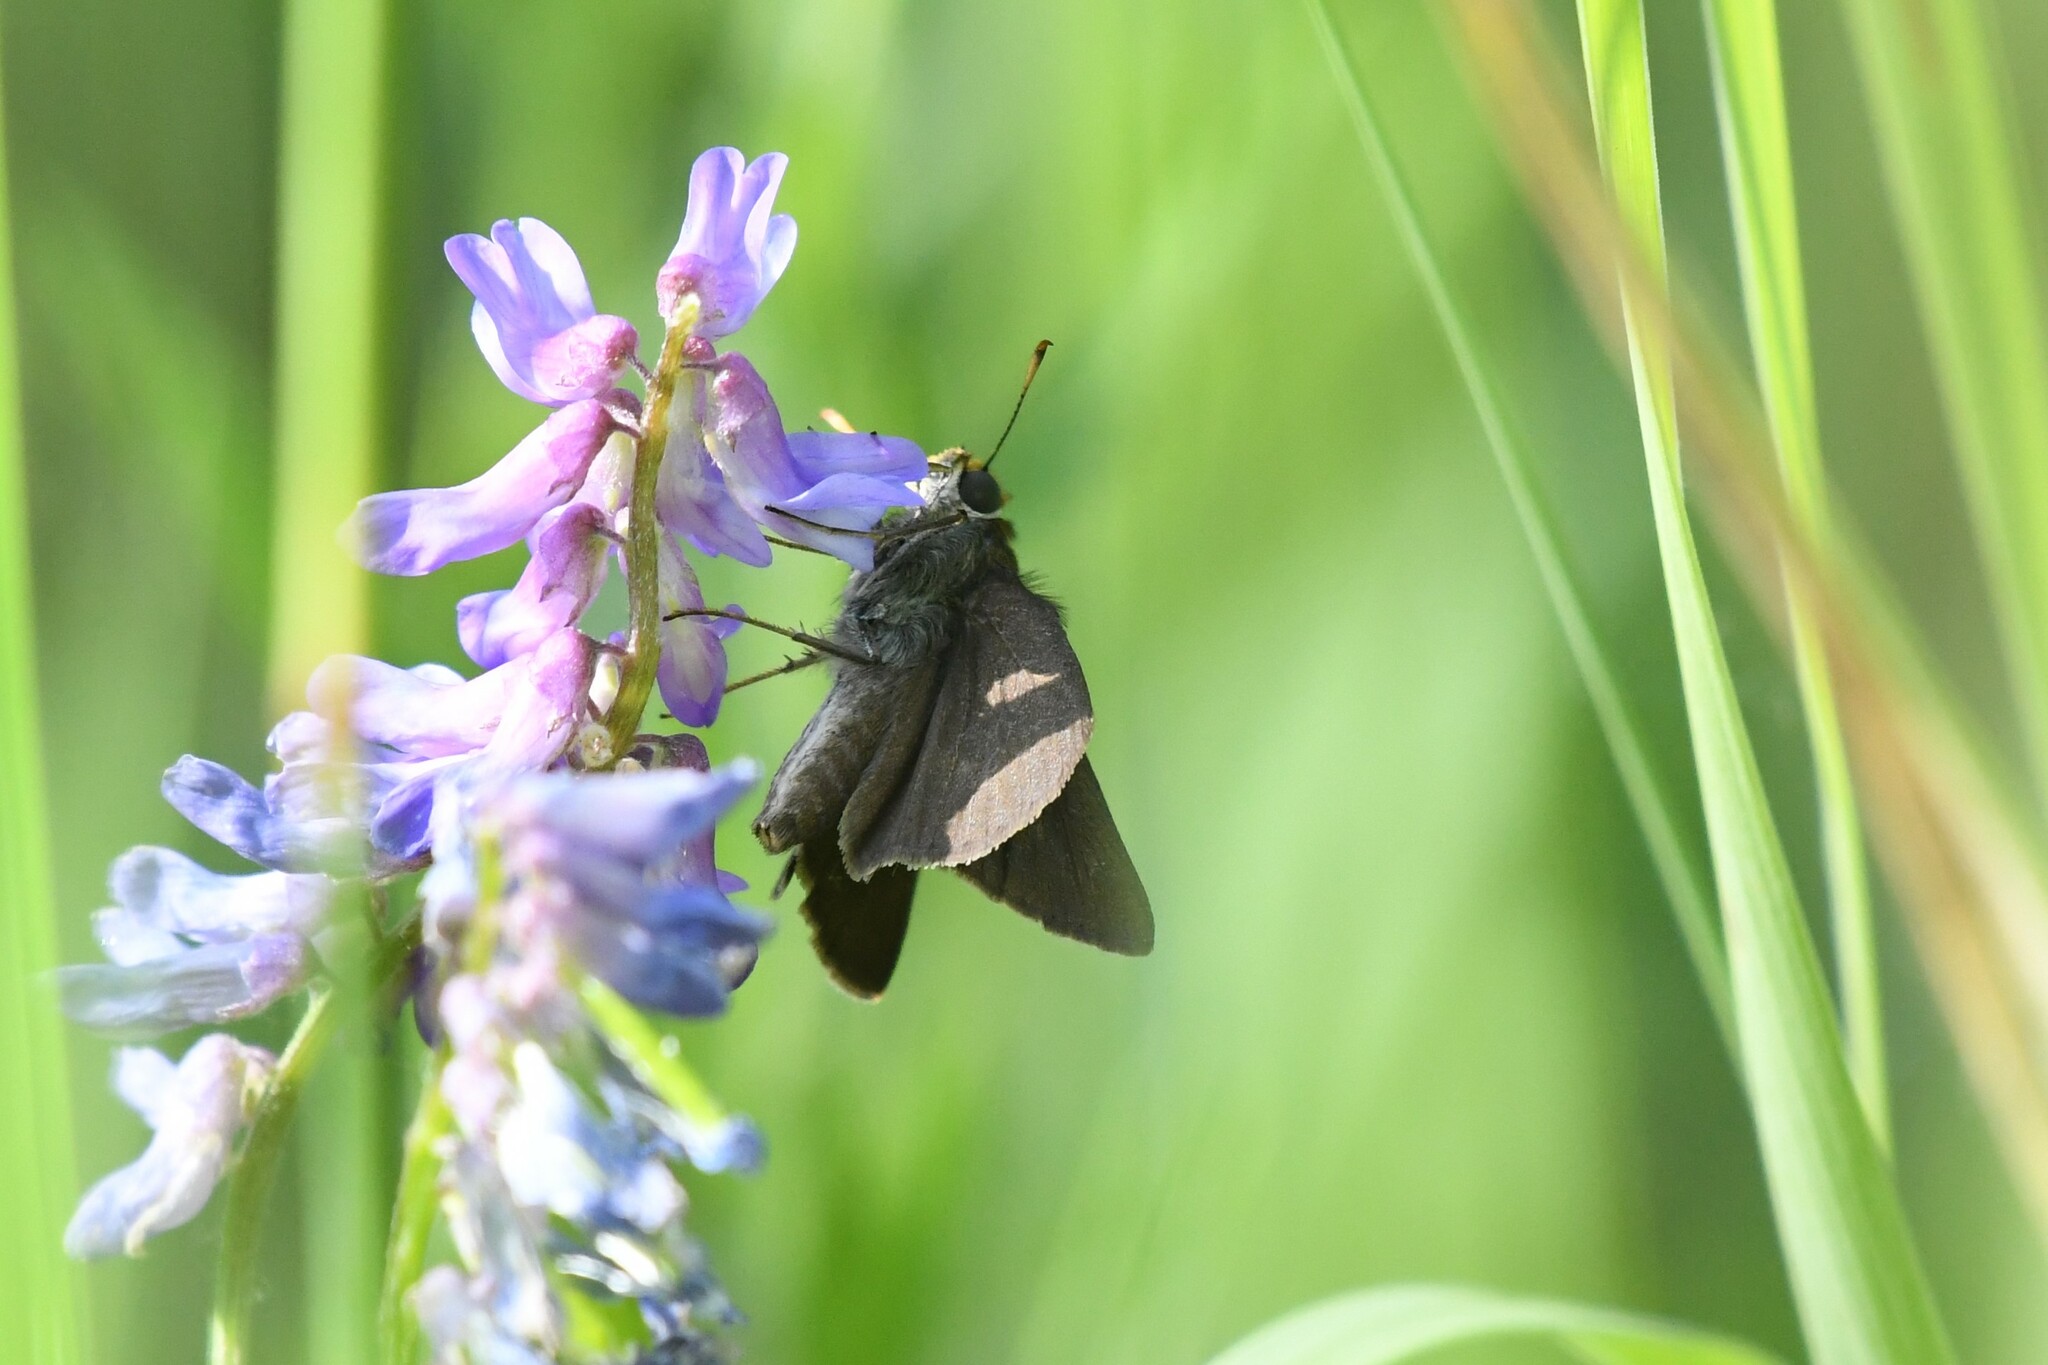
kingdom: Animalia
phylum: Arthropoda
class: Insecta
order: Lepidoptera
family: Hesperiidae
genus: Euphyes
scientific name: Euphyes vestris
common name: Dun skipper
